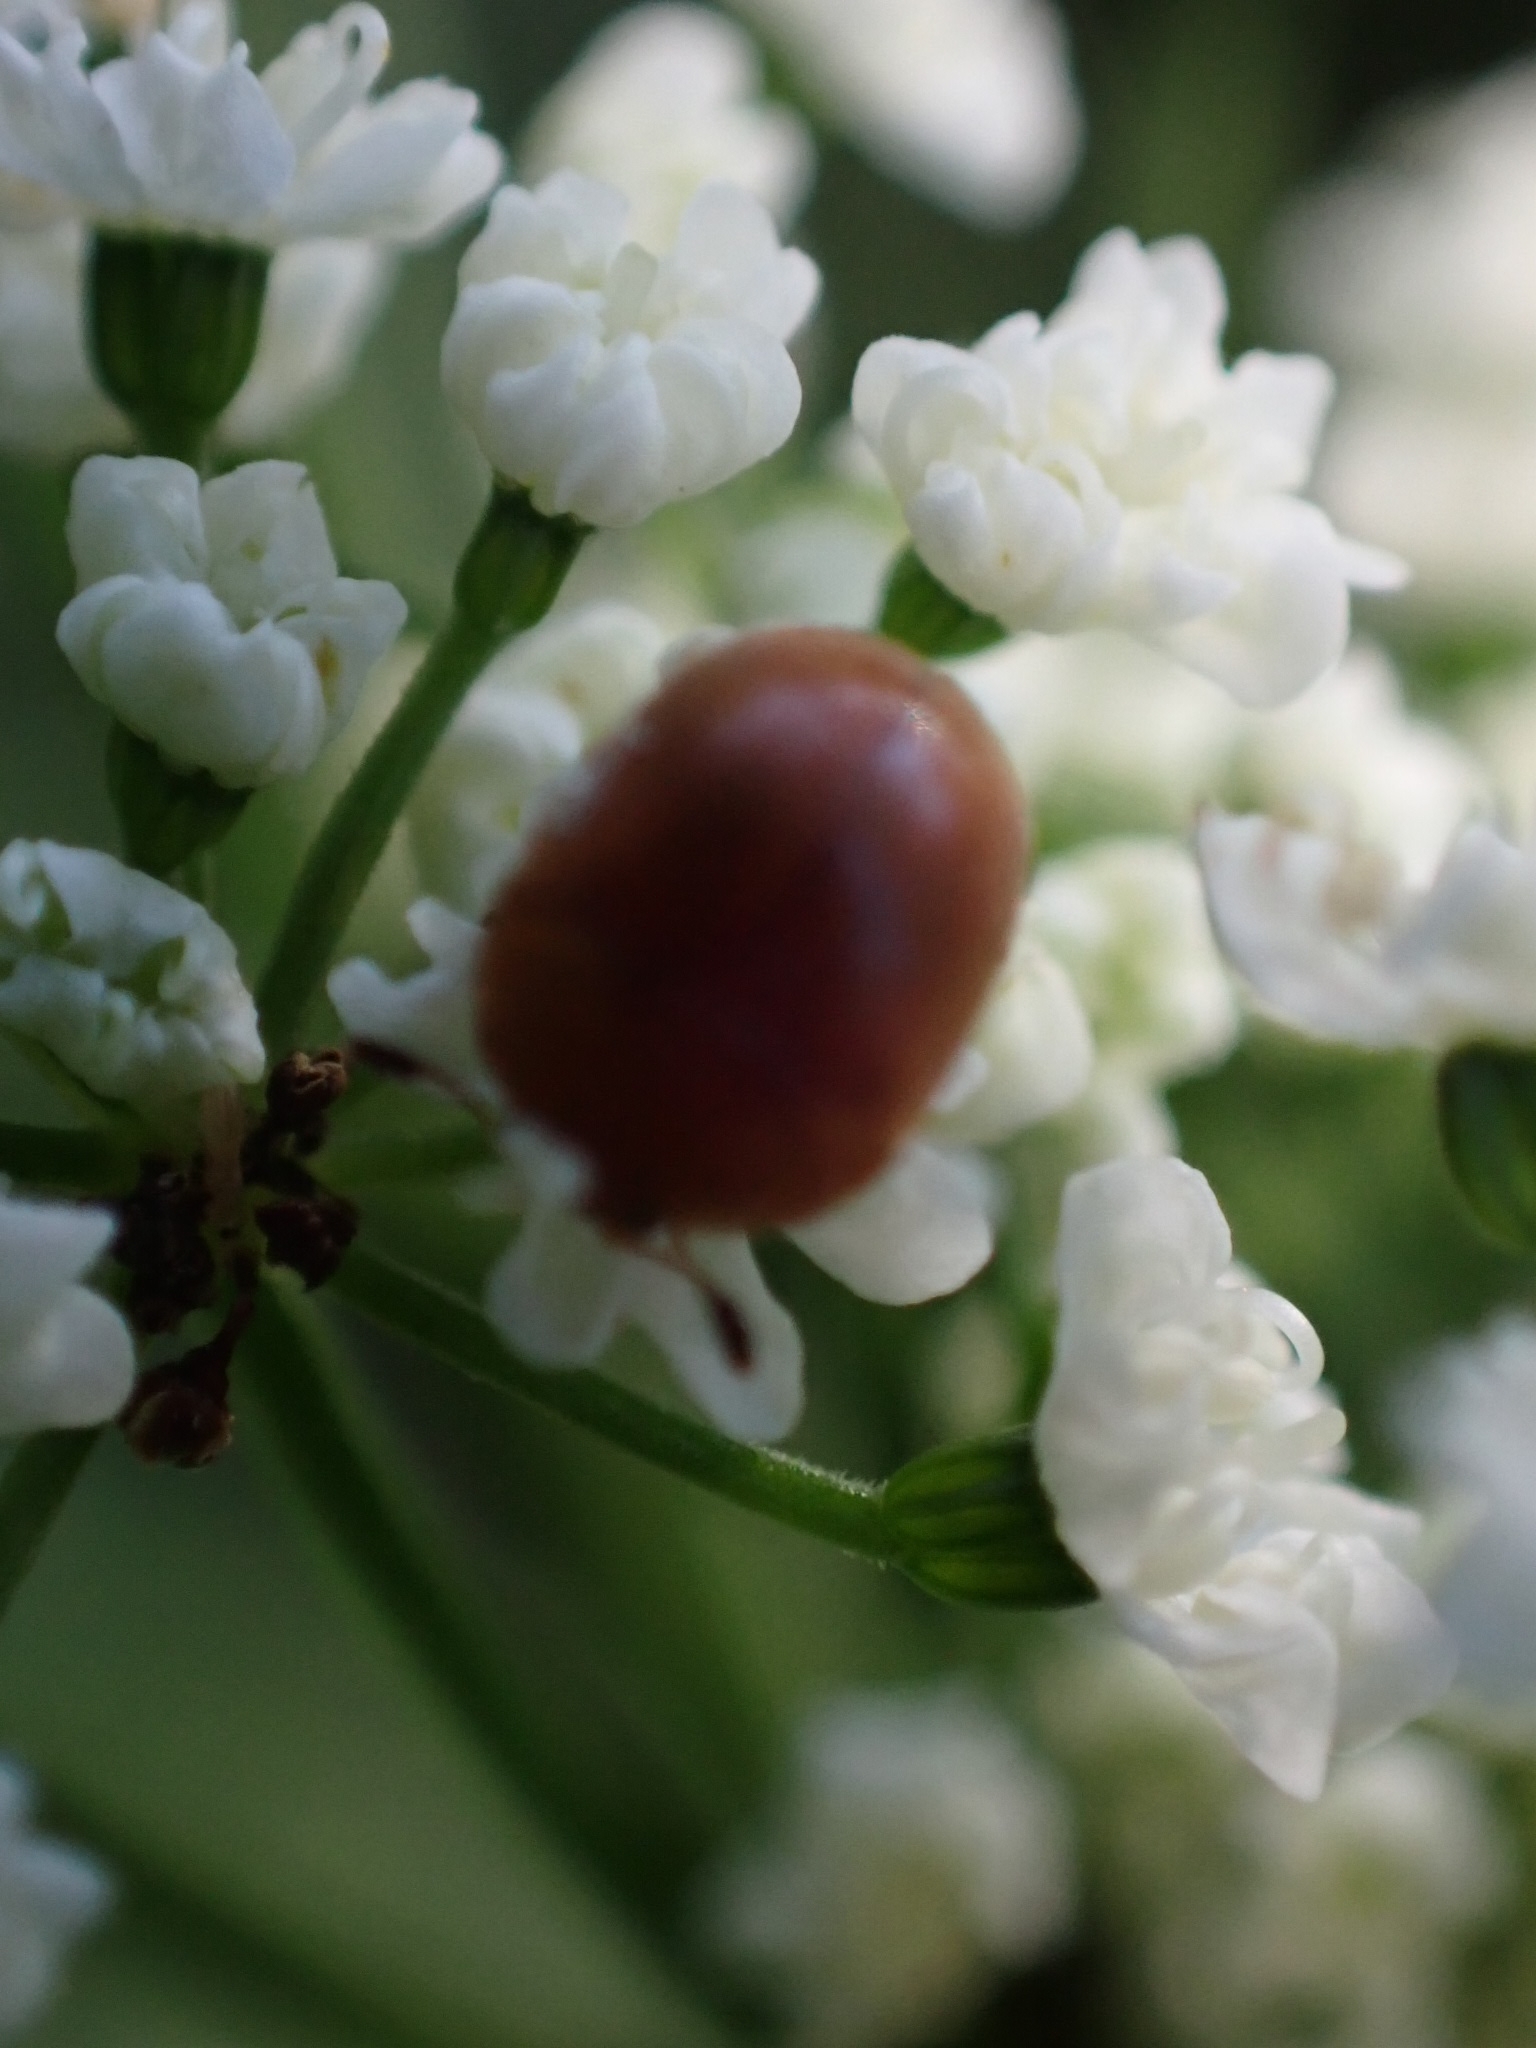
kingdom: Animalia
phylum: Arthropoda
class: Insecta
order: Coleoptera
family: Nitidulidae
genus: Cychramus
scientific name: Cychramus luteus
